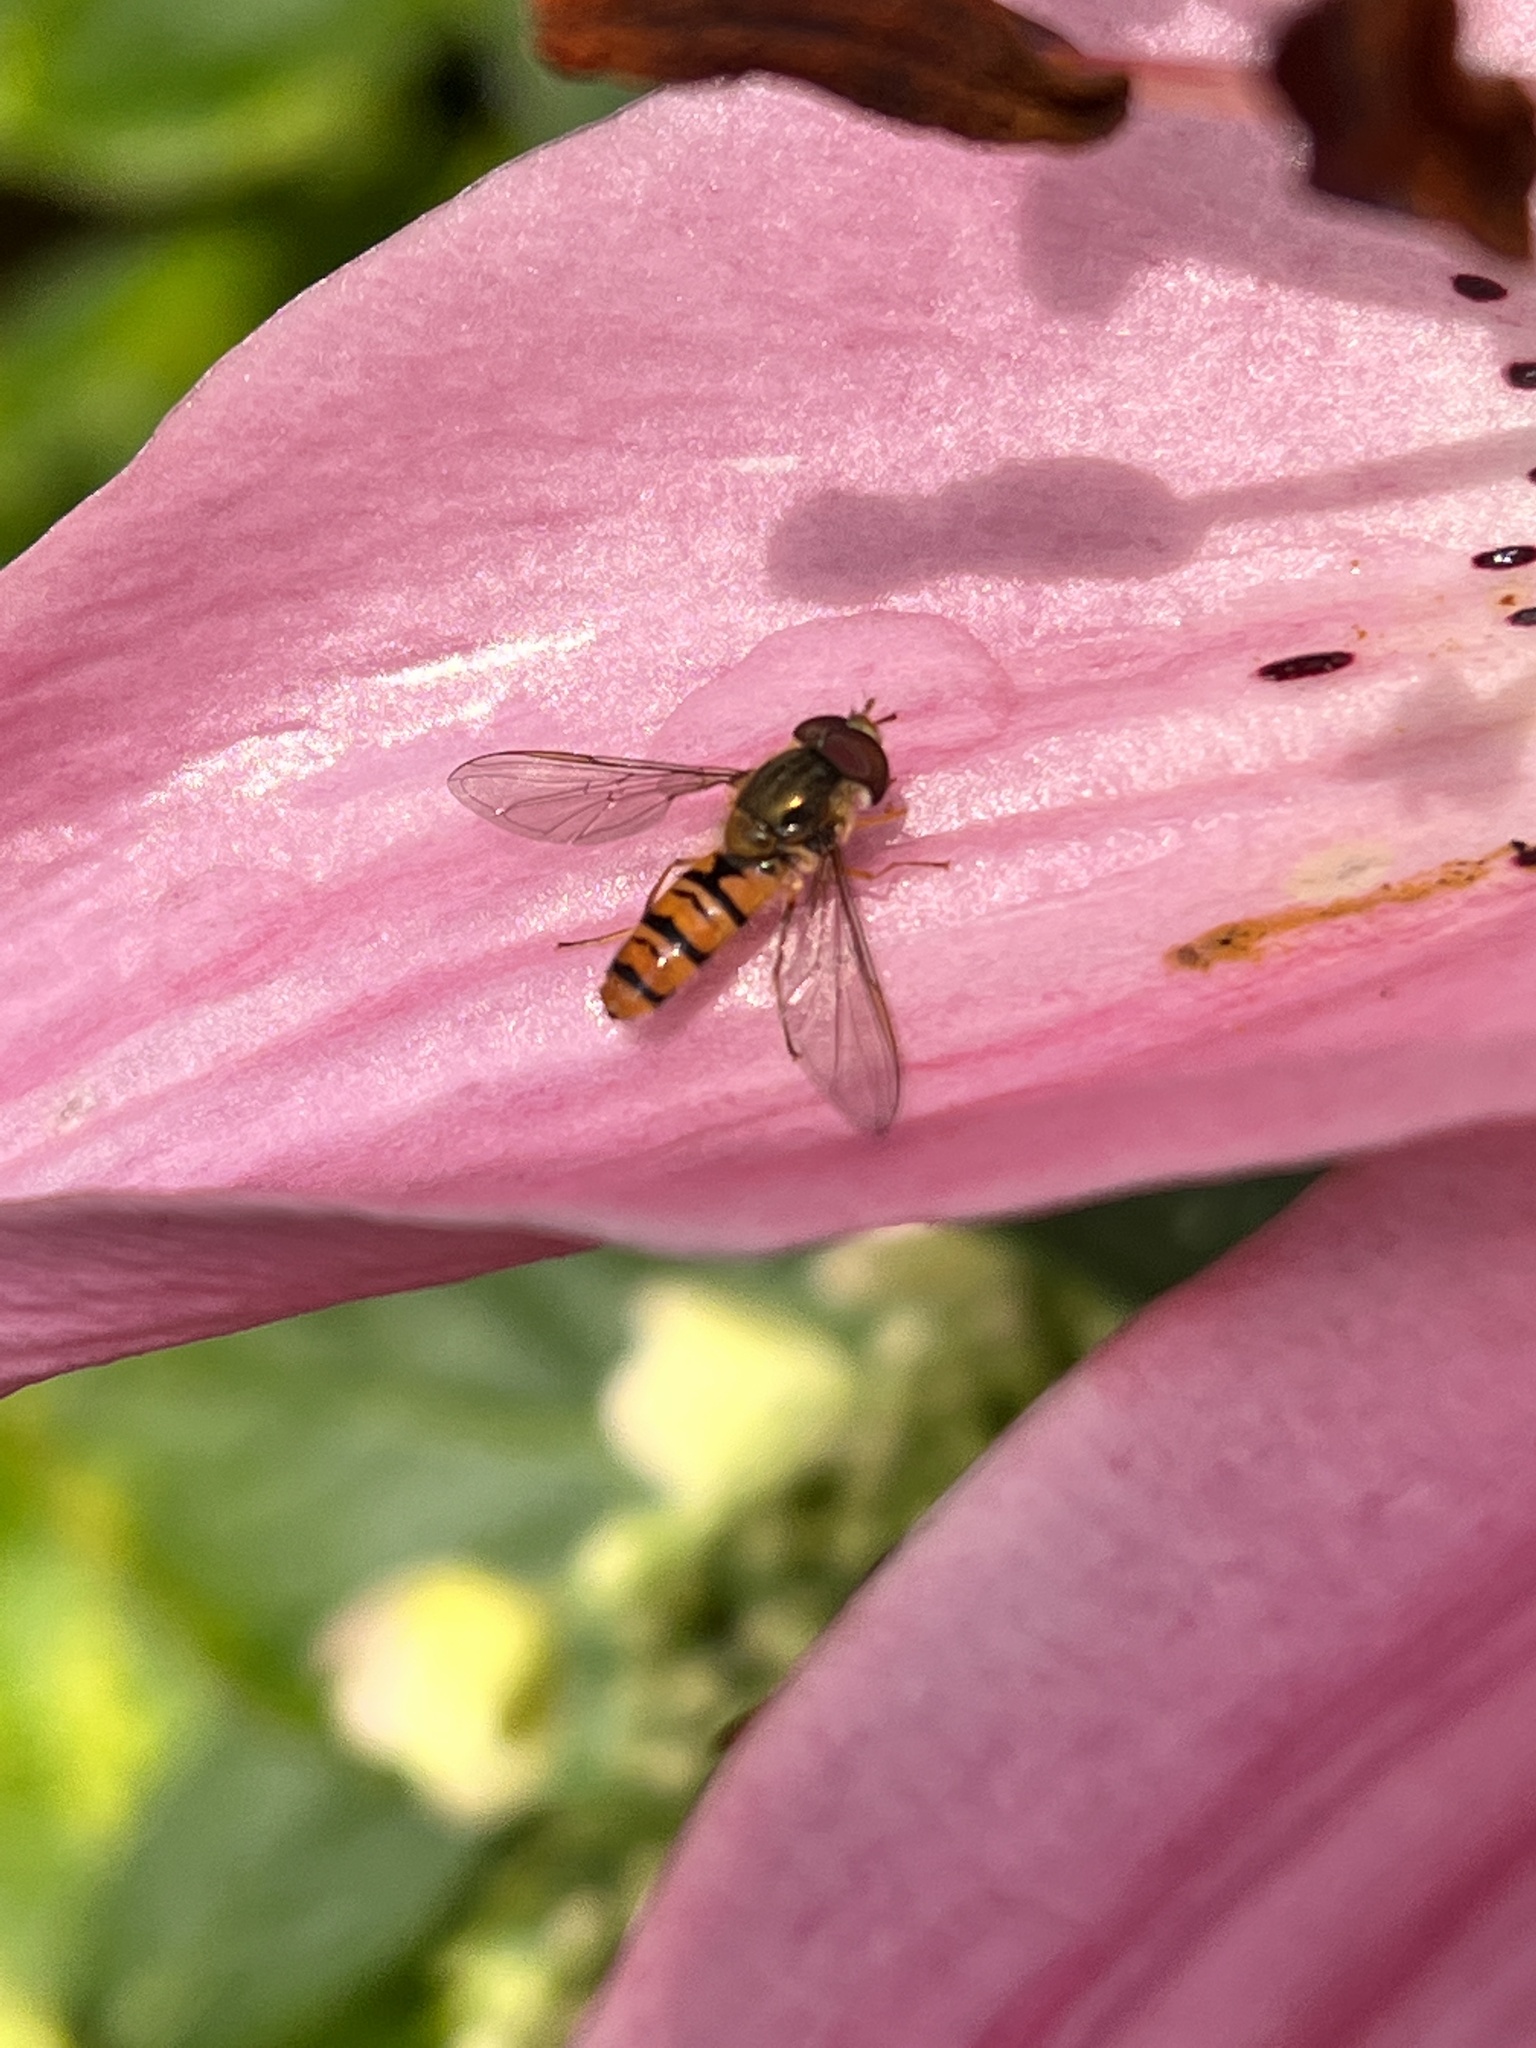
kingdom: Animalia
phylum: Arthropoda
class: Insecta
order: Diptera
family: Syrphidae
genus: Episyrphus
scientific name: Episyrphus balteatus
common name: Marmalade hoverfly
